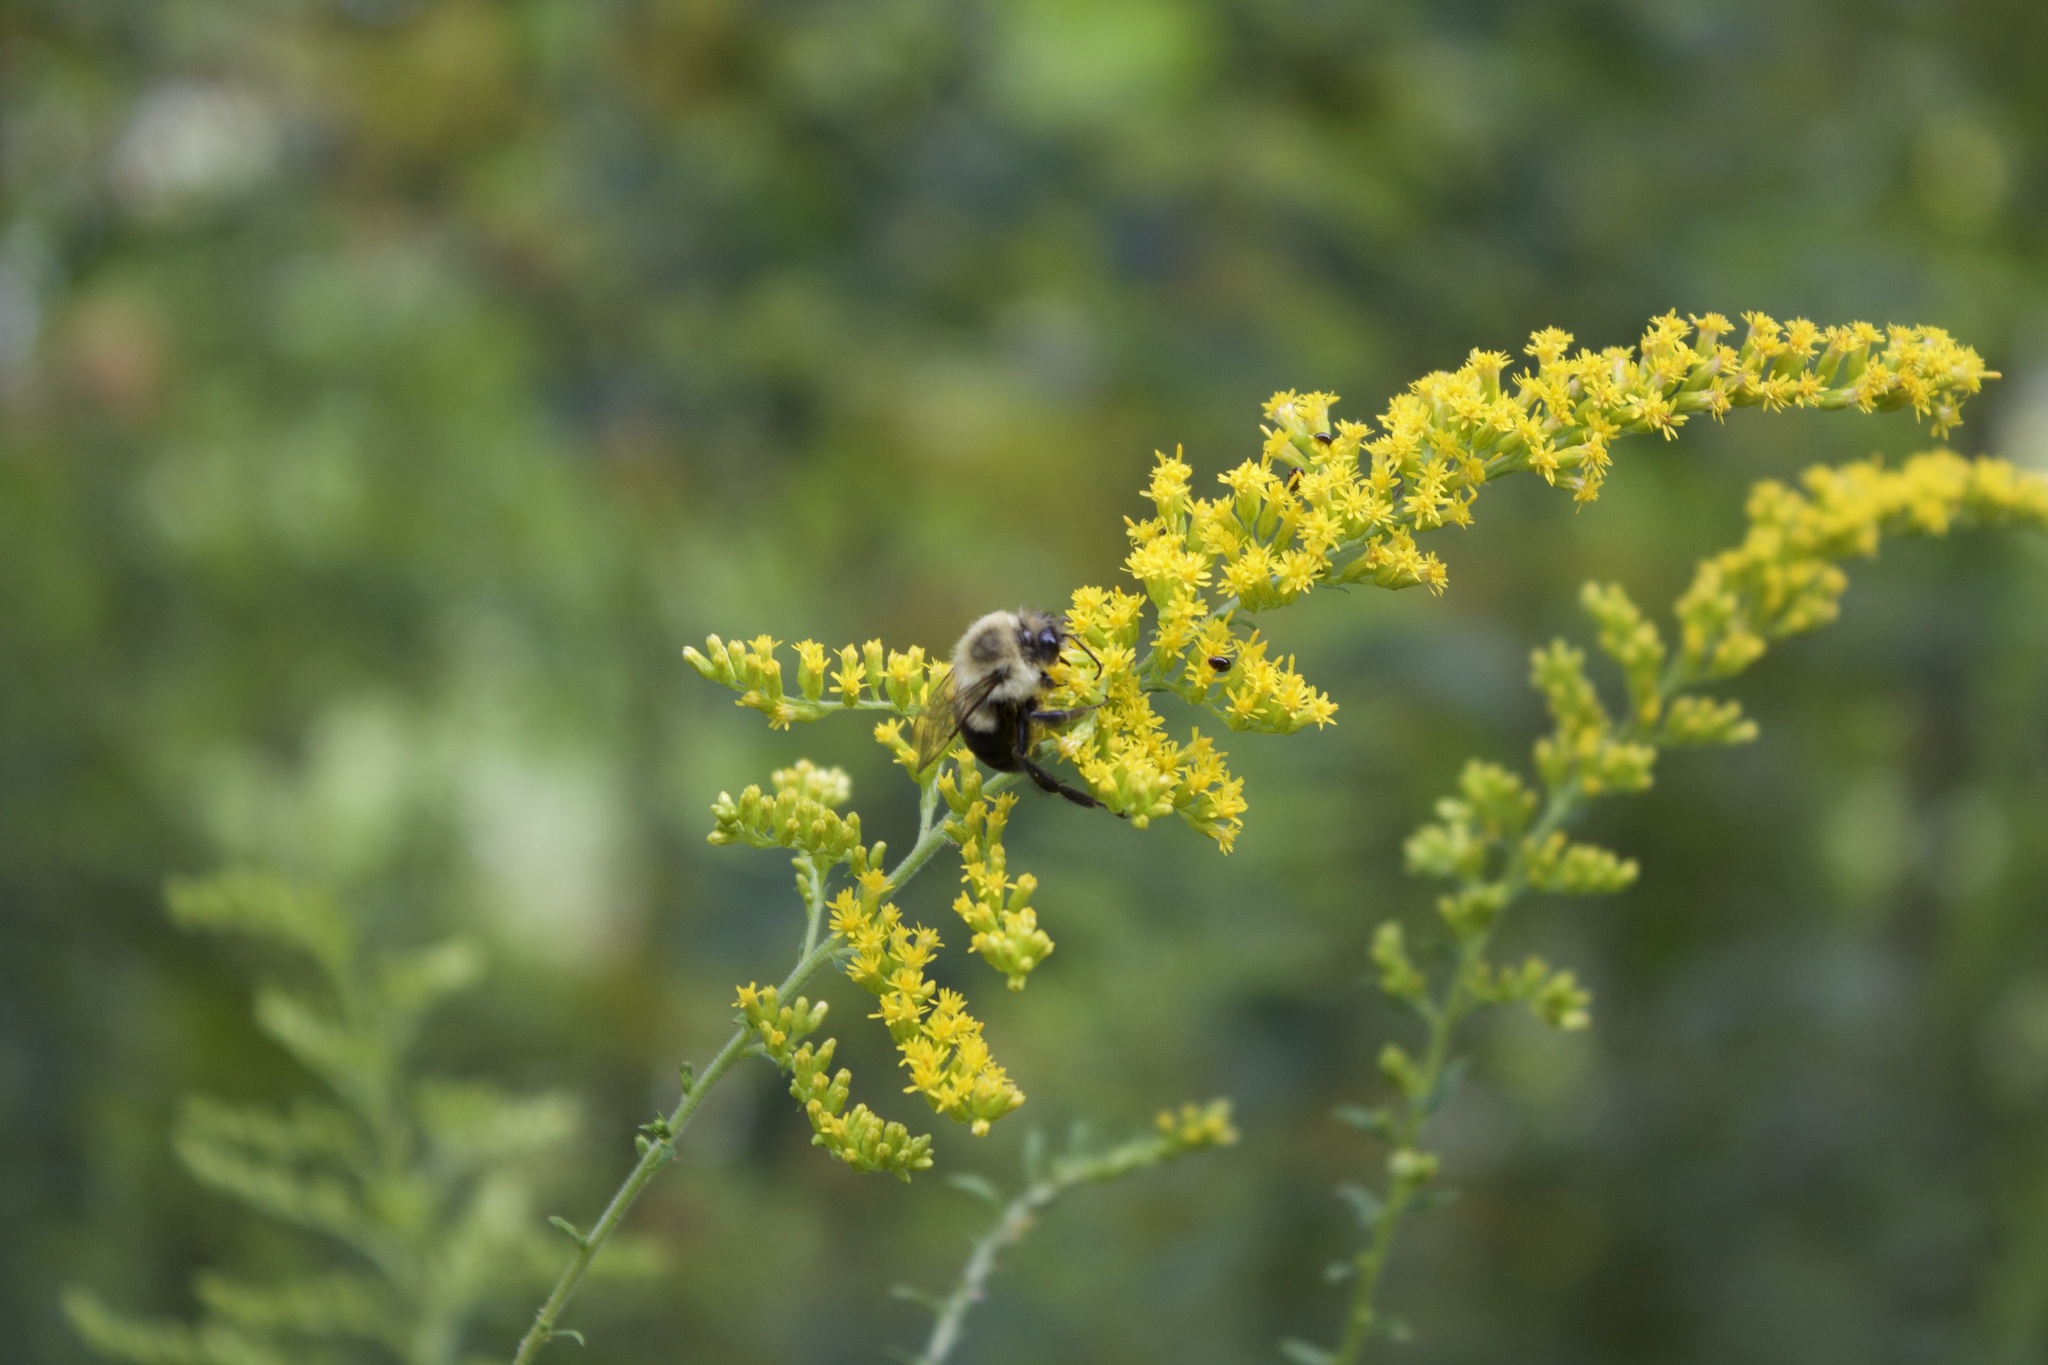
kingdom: Animalia
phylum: Arthropoda
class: Insecta
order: Hymenoptera
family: Apidae
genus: Bombus
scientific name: Bombus impatiens
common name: Common eastern bumble bee
